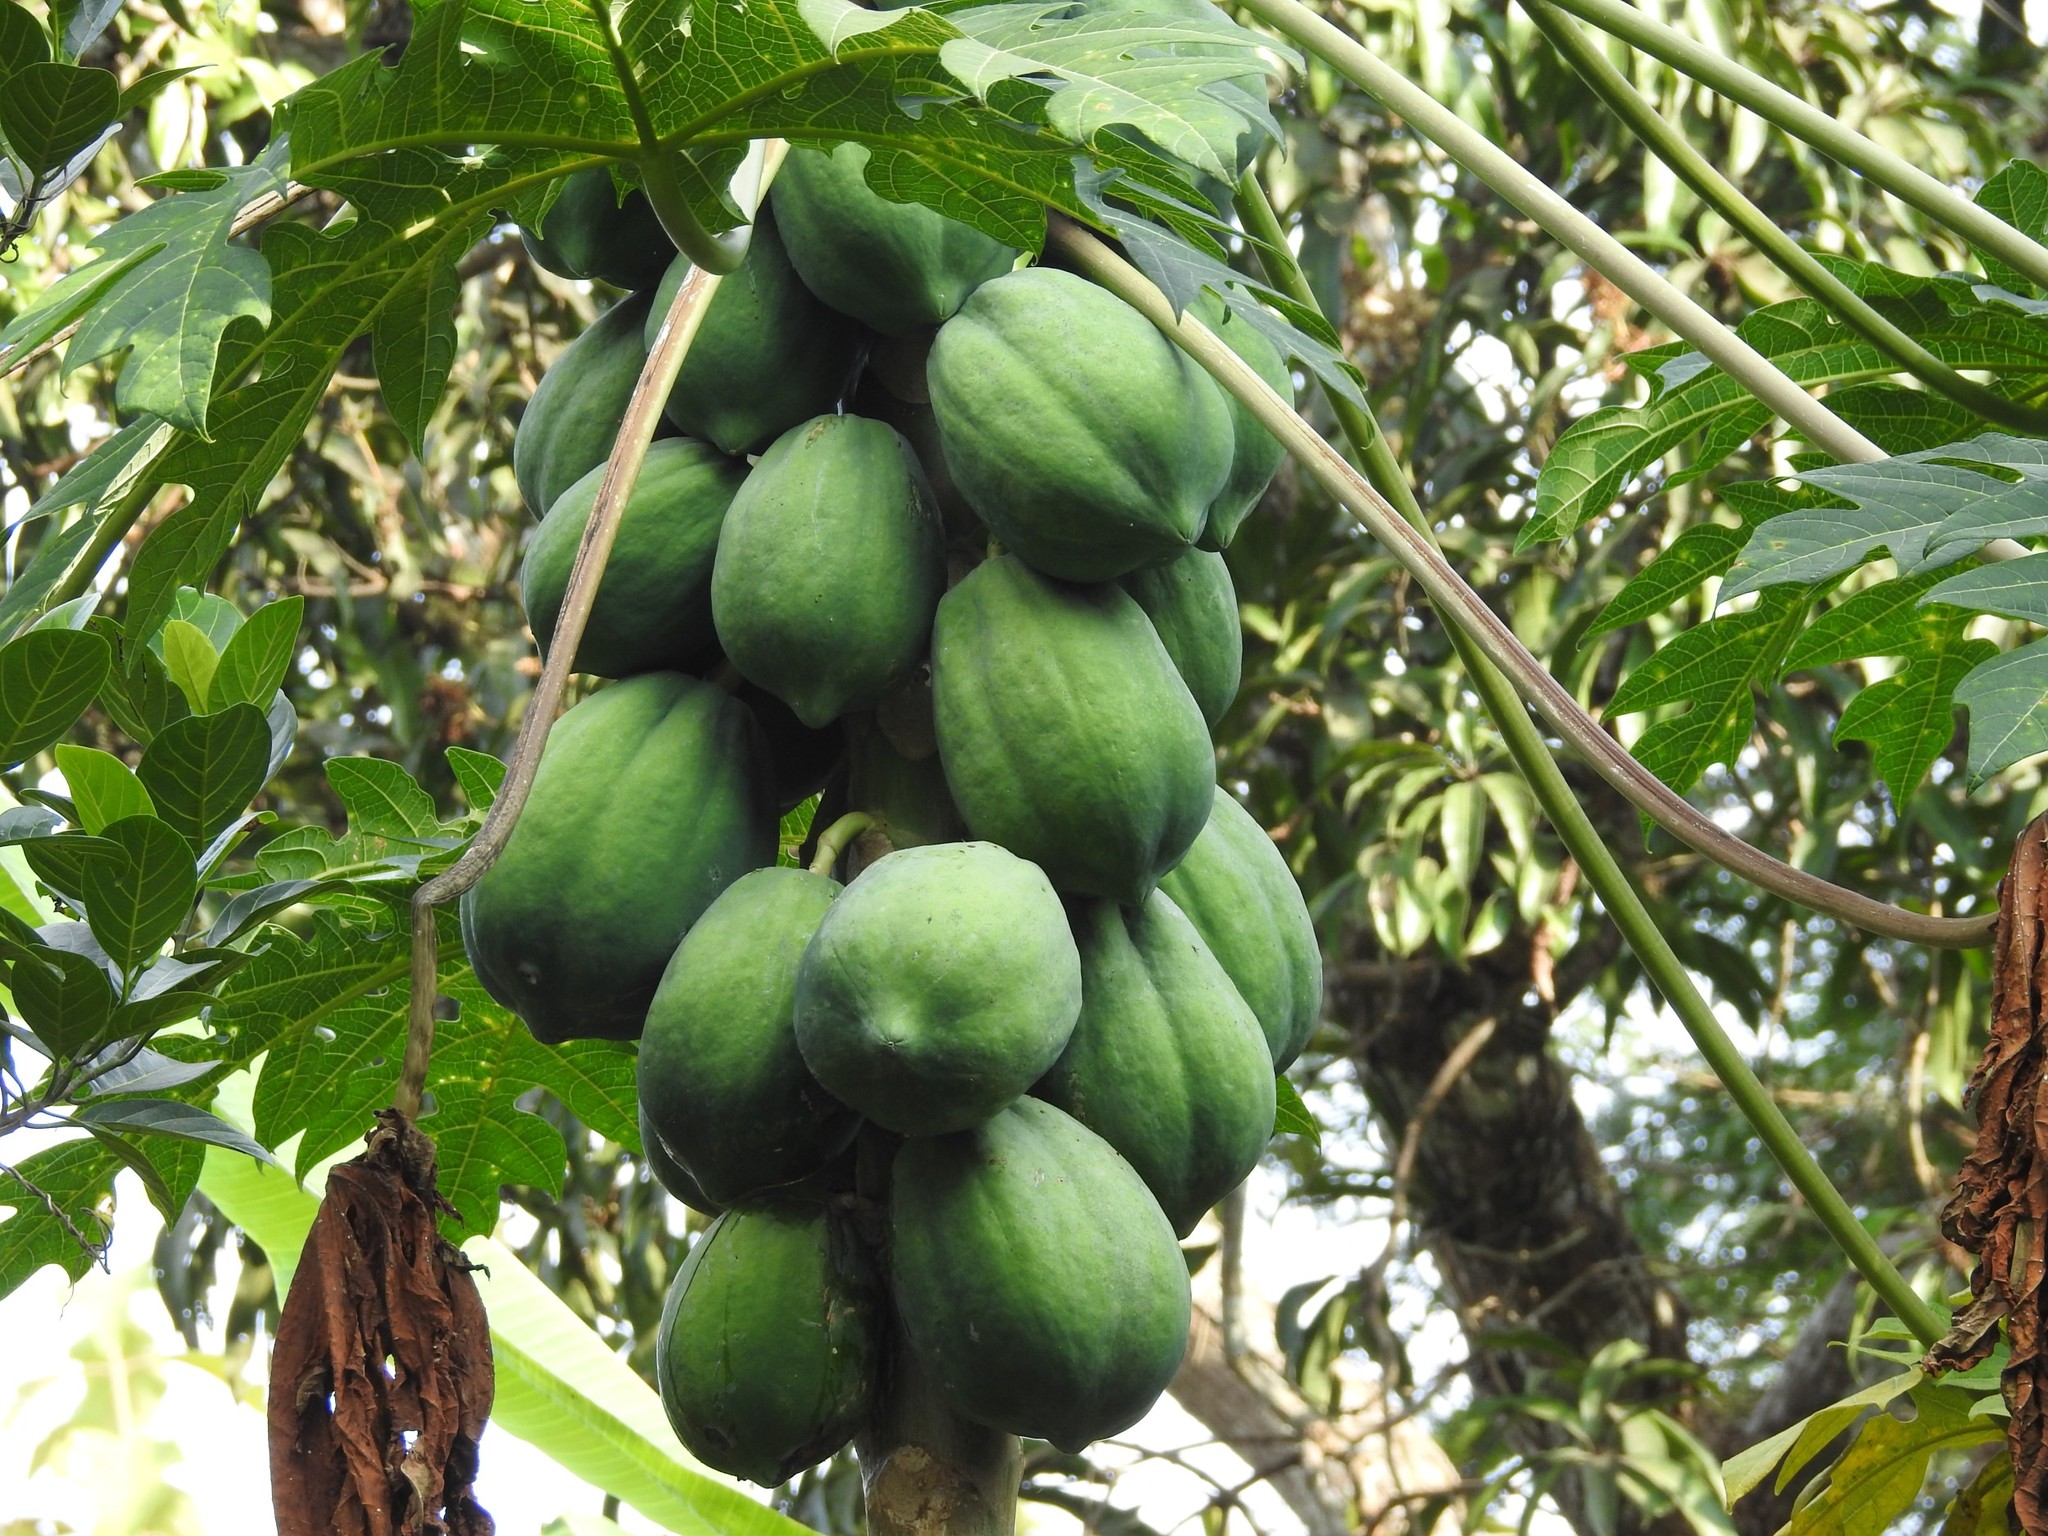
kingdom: Plantae
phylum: Tracheophyta
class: Magnoliopsida
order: Brassicales
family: Caricaceae
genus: Carica
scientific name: Carica papaya
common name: Papaya
